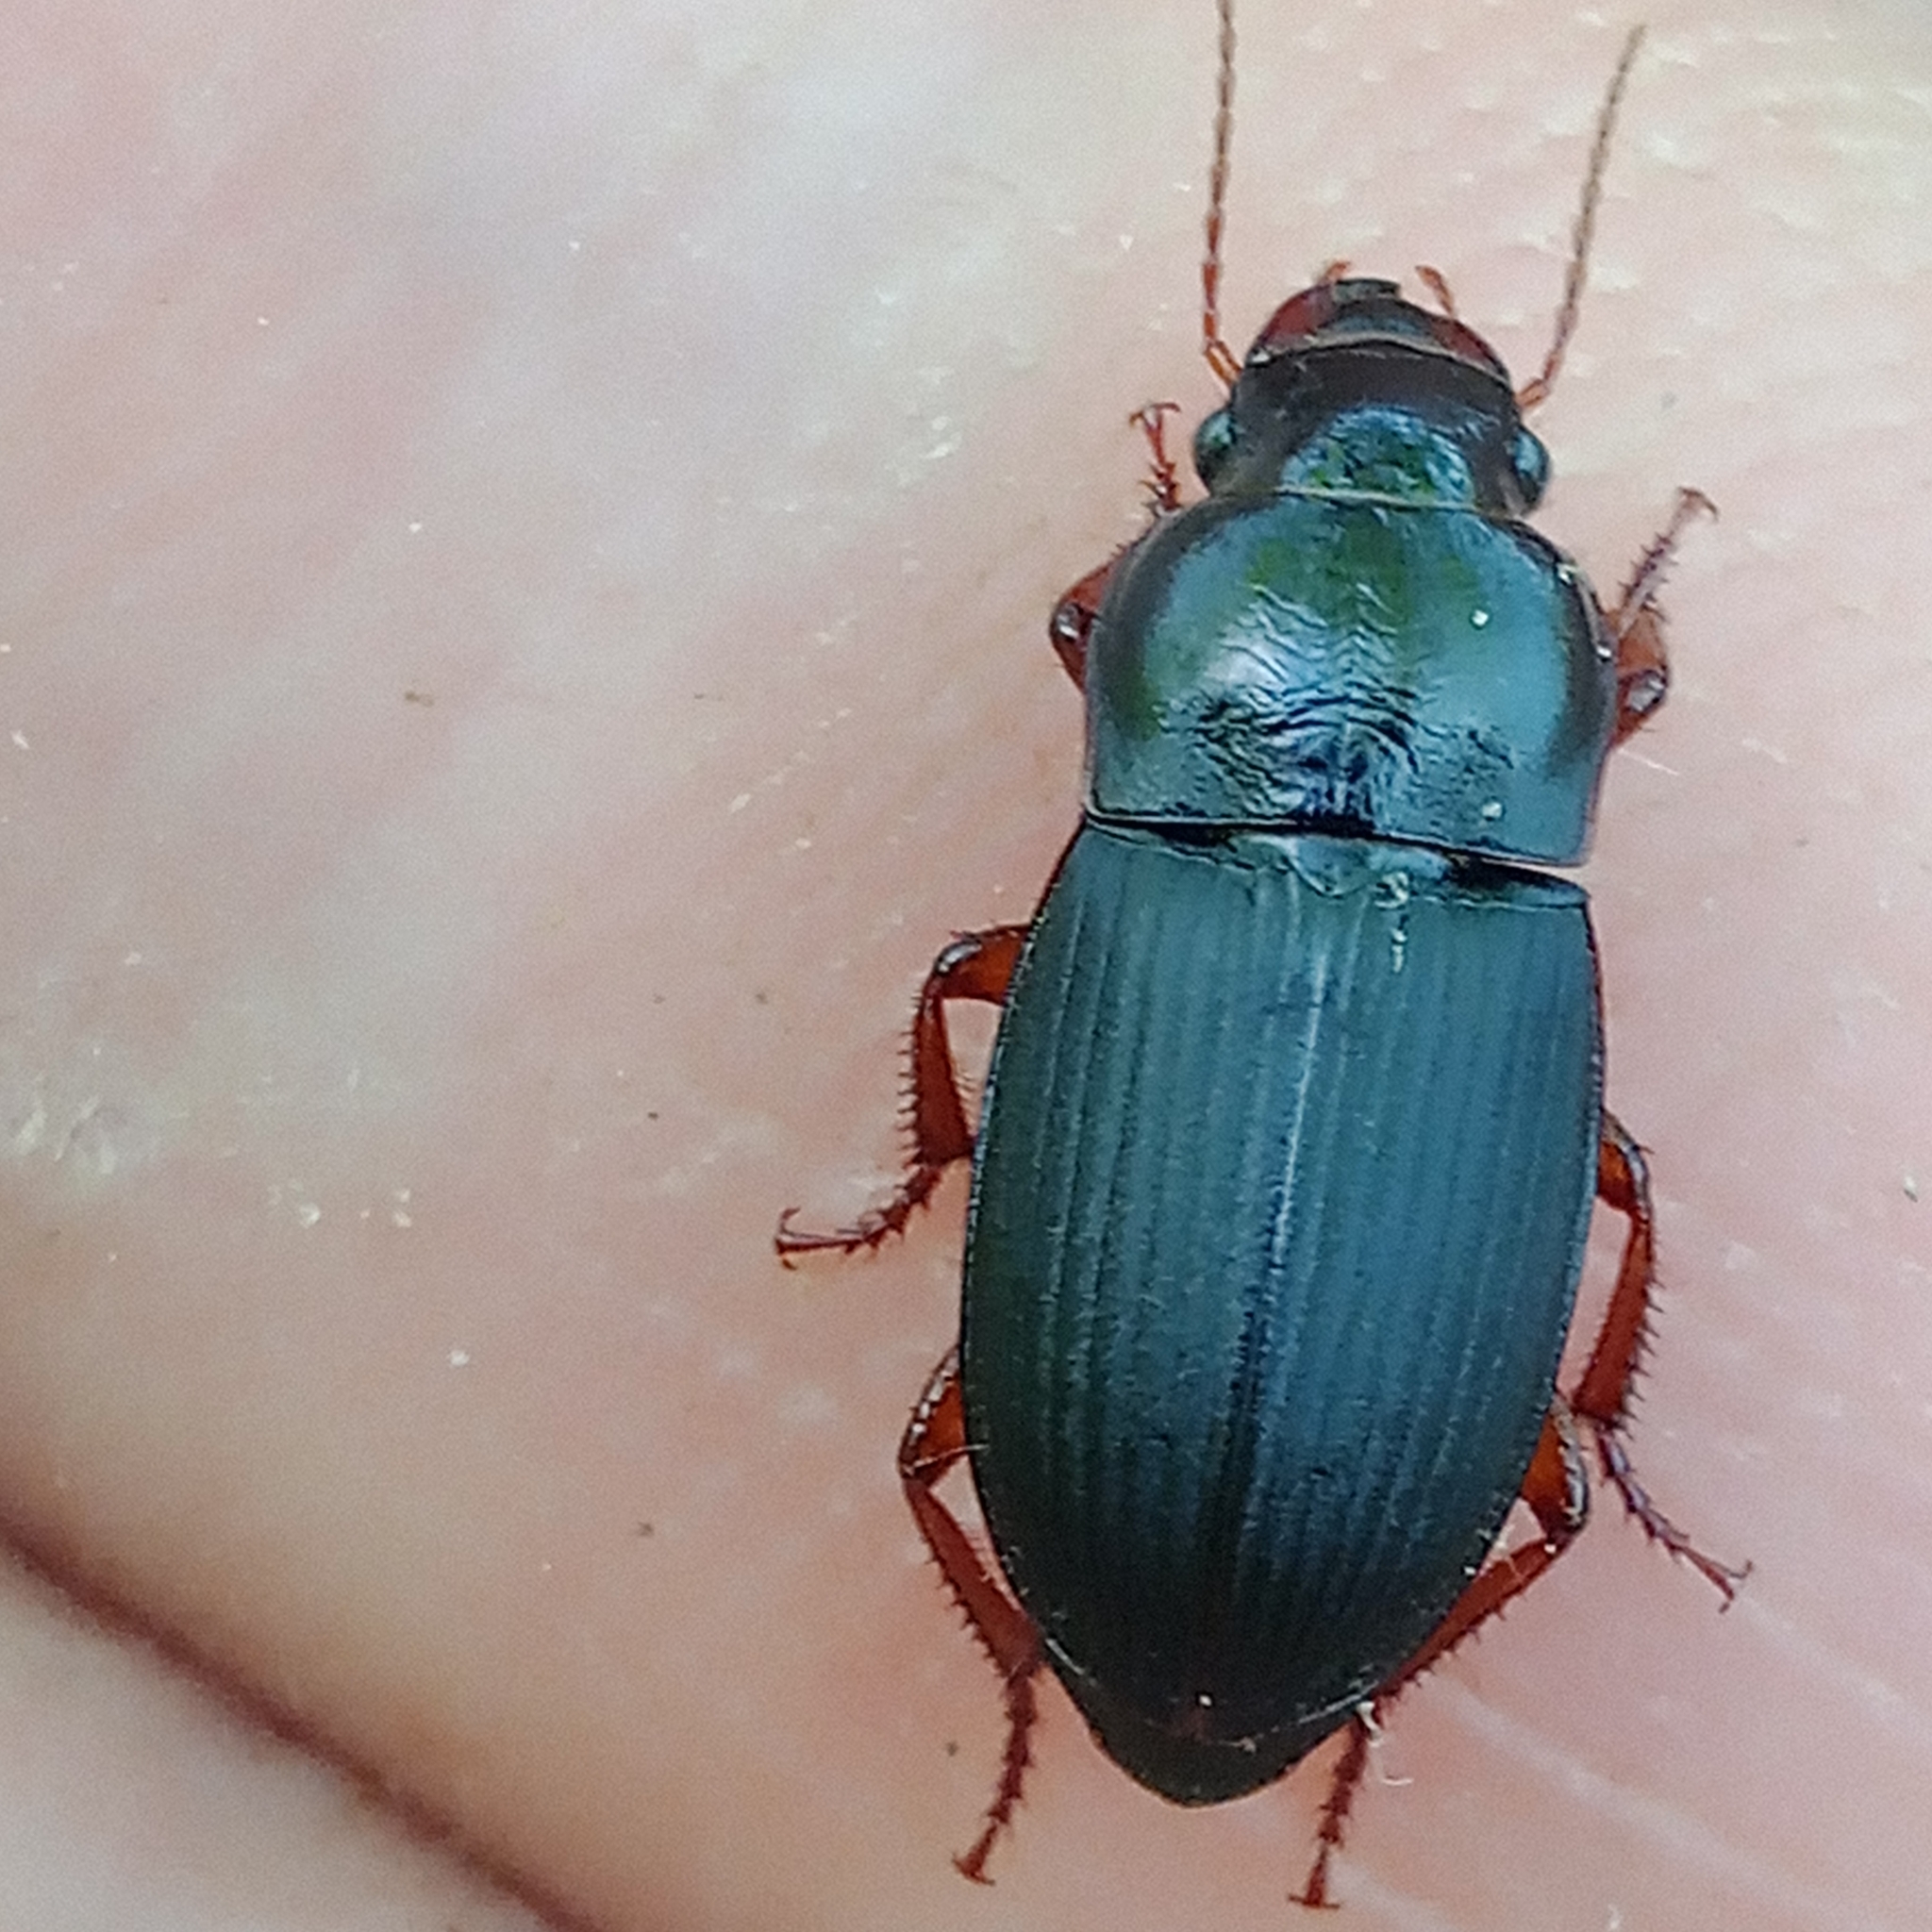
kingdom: Animalia
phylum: Arthropoda
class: Insecta
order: Coleoptera
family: Carabidae
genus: Harpalus
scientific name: Harpalus rubripes
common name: Red-legged harp ground beetle
